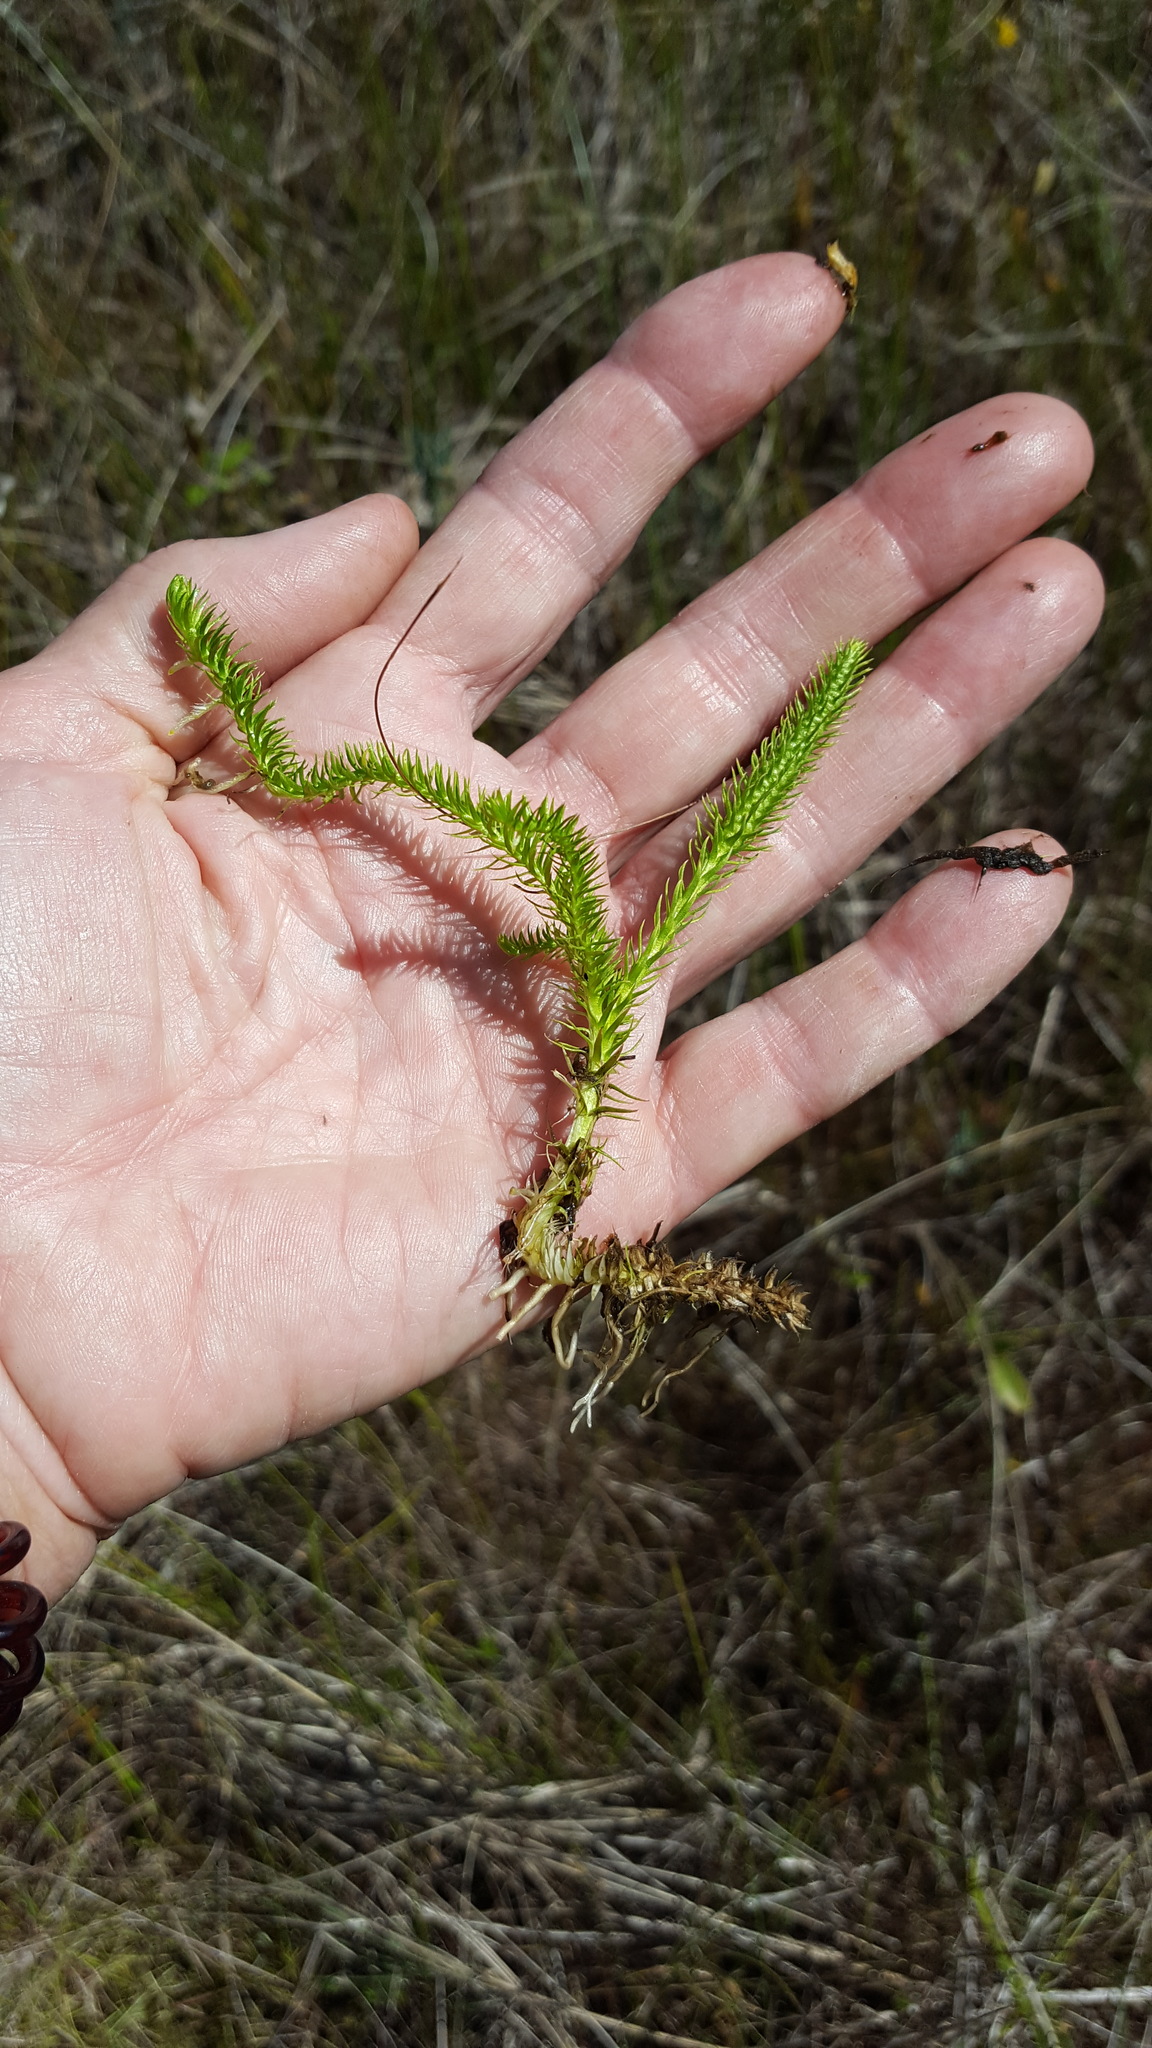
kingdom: Plantae
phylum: Tracheophyta
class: Lycopodiopsida
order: Lycopodiales
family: Lycopodiaceae
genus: Lycopodiella
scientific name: Lycopodiella inundata
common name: Marsh clubmoss
